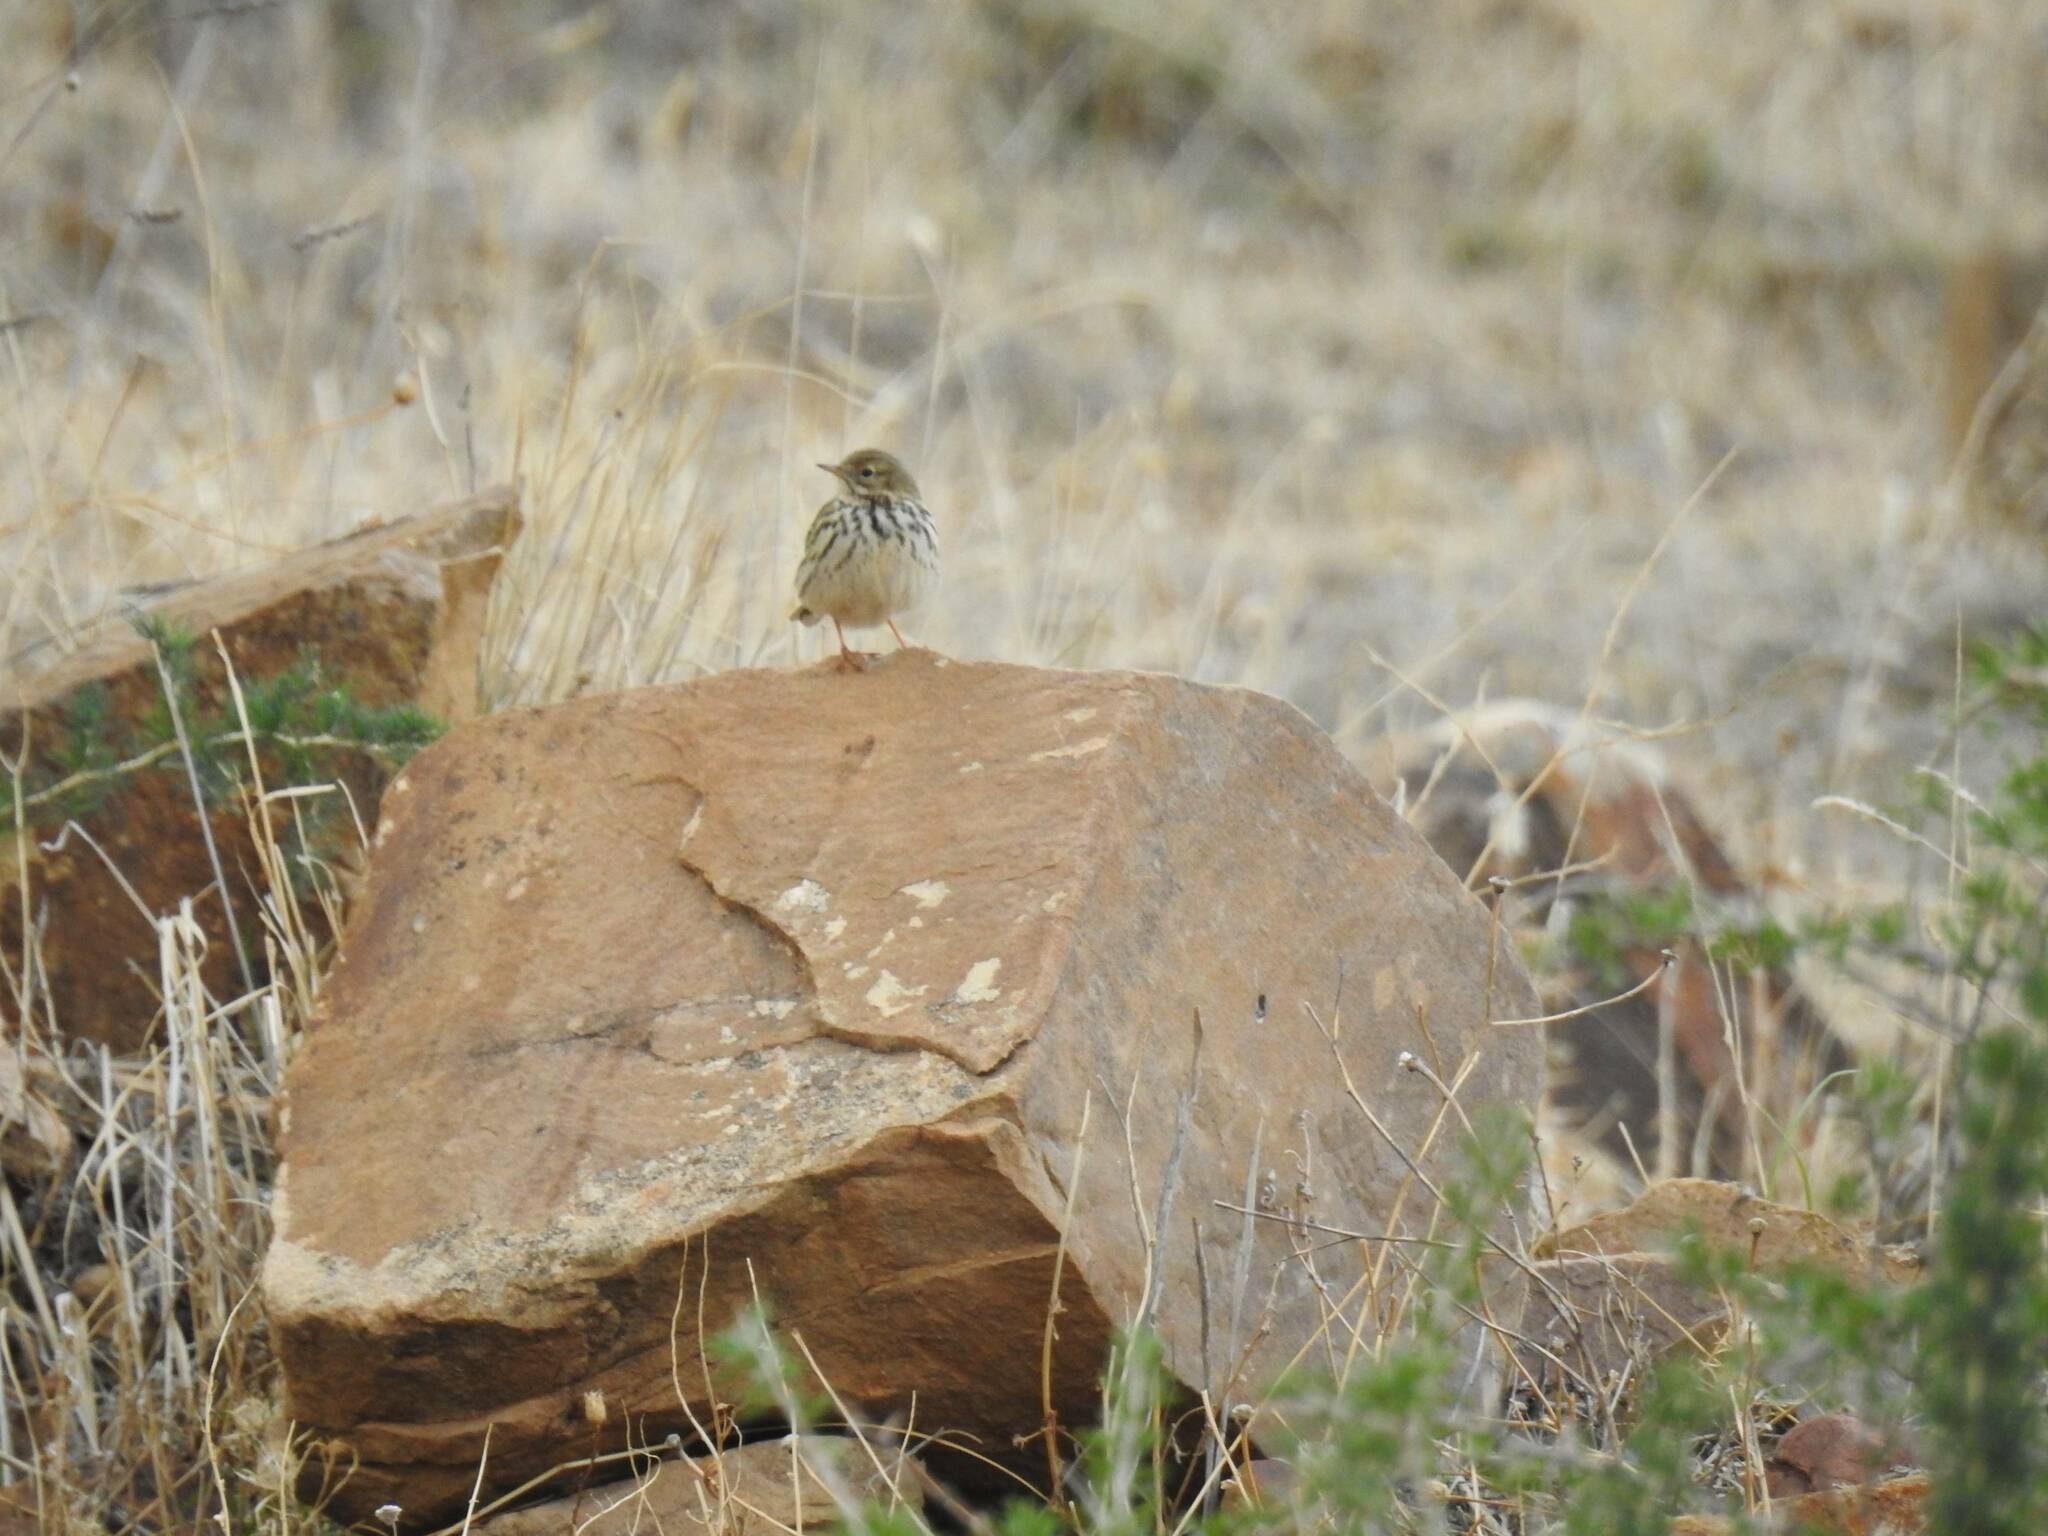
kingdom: Animalia
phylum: Chordata
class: Aves
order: Passeriformes
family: Motacillidae
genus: Anthus
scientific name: Anthus pratensis
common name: Meadow pipit
